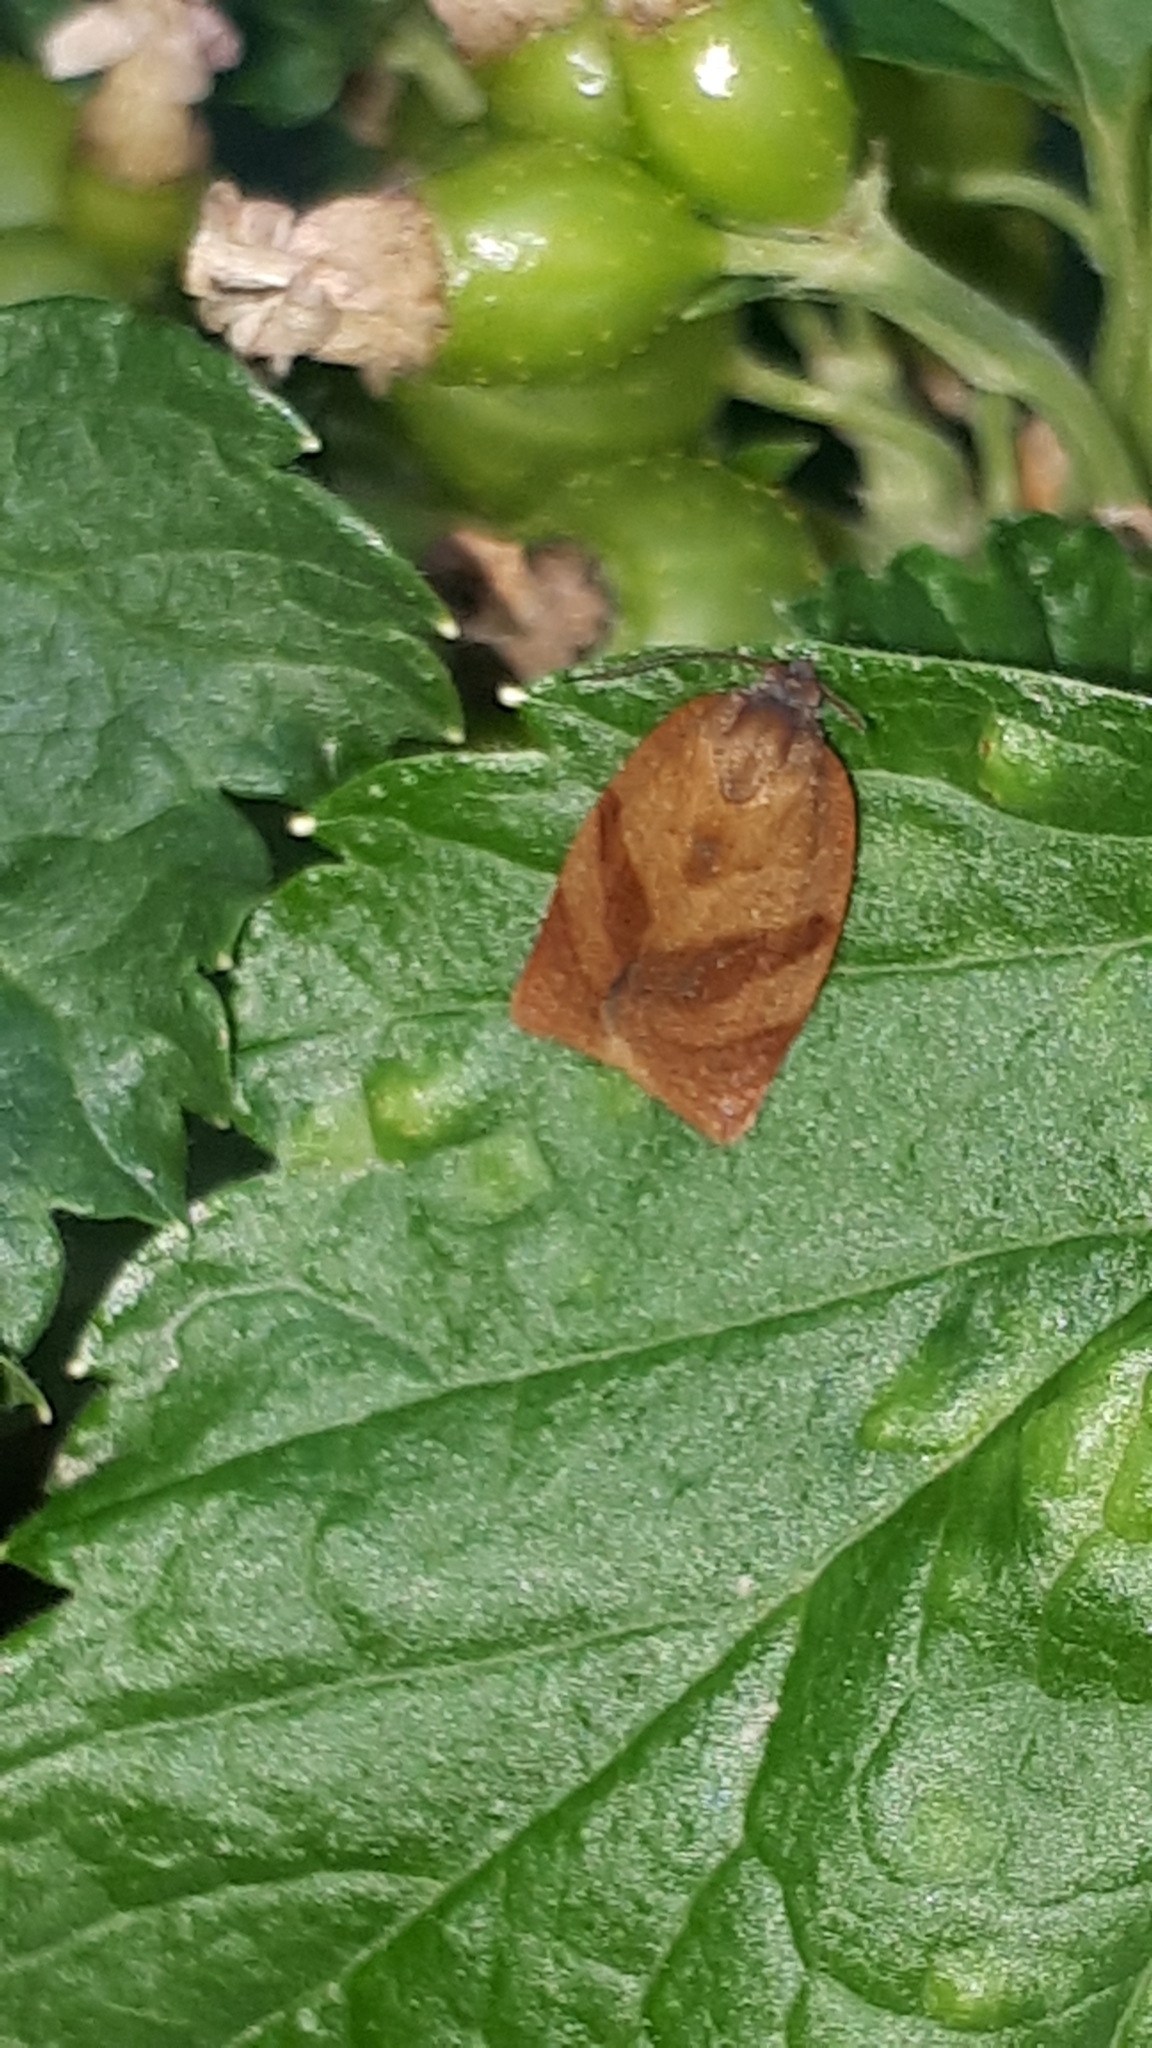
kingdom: Animalia
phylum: Arthropoda
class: Insecta
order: Lepidoptera
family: Tortricidae
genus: Cacoecimorpha
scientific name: Cacoecimorpha pronubana
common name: Carnation tortrix
